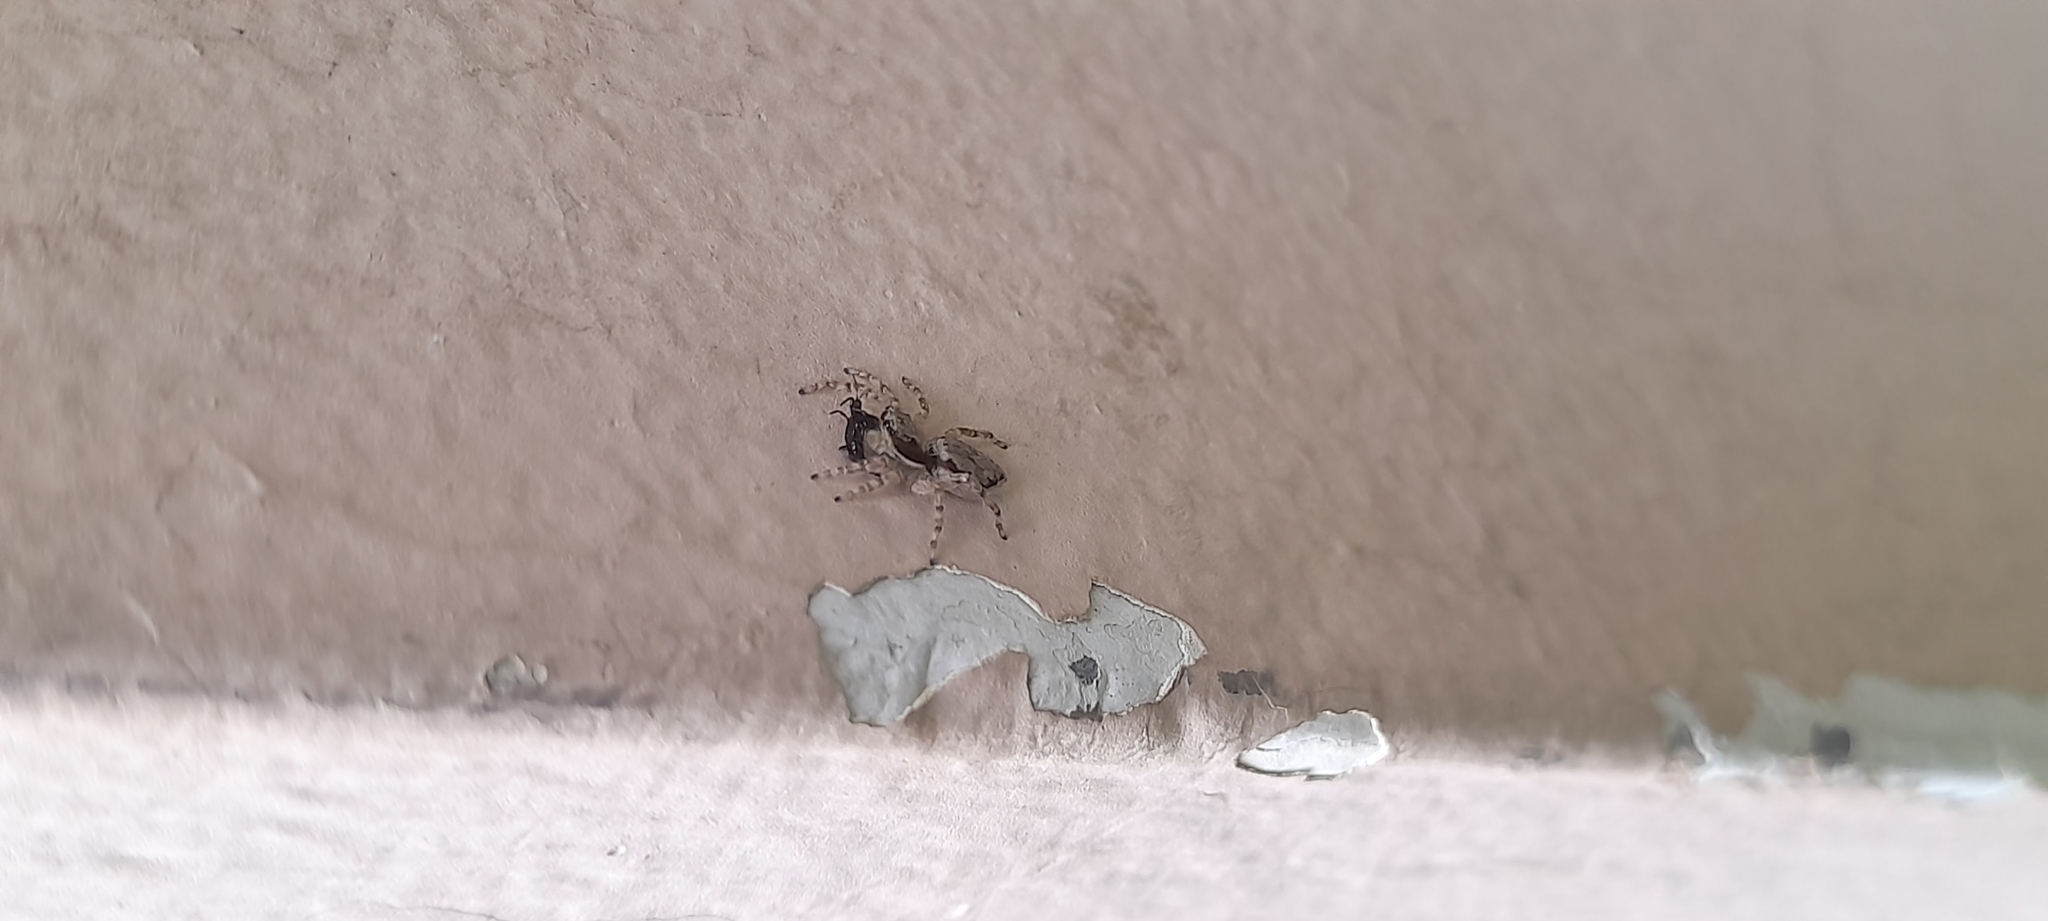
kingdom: Animalia
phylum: Arthropoda
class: Arachnida
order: Araneae
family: Salticidae
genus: Menemerus
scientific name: Menemerus bivittatus
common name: Gray wall jumper
